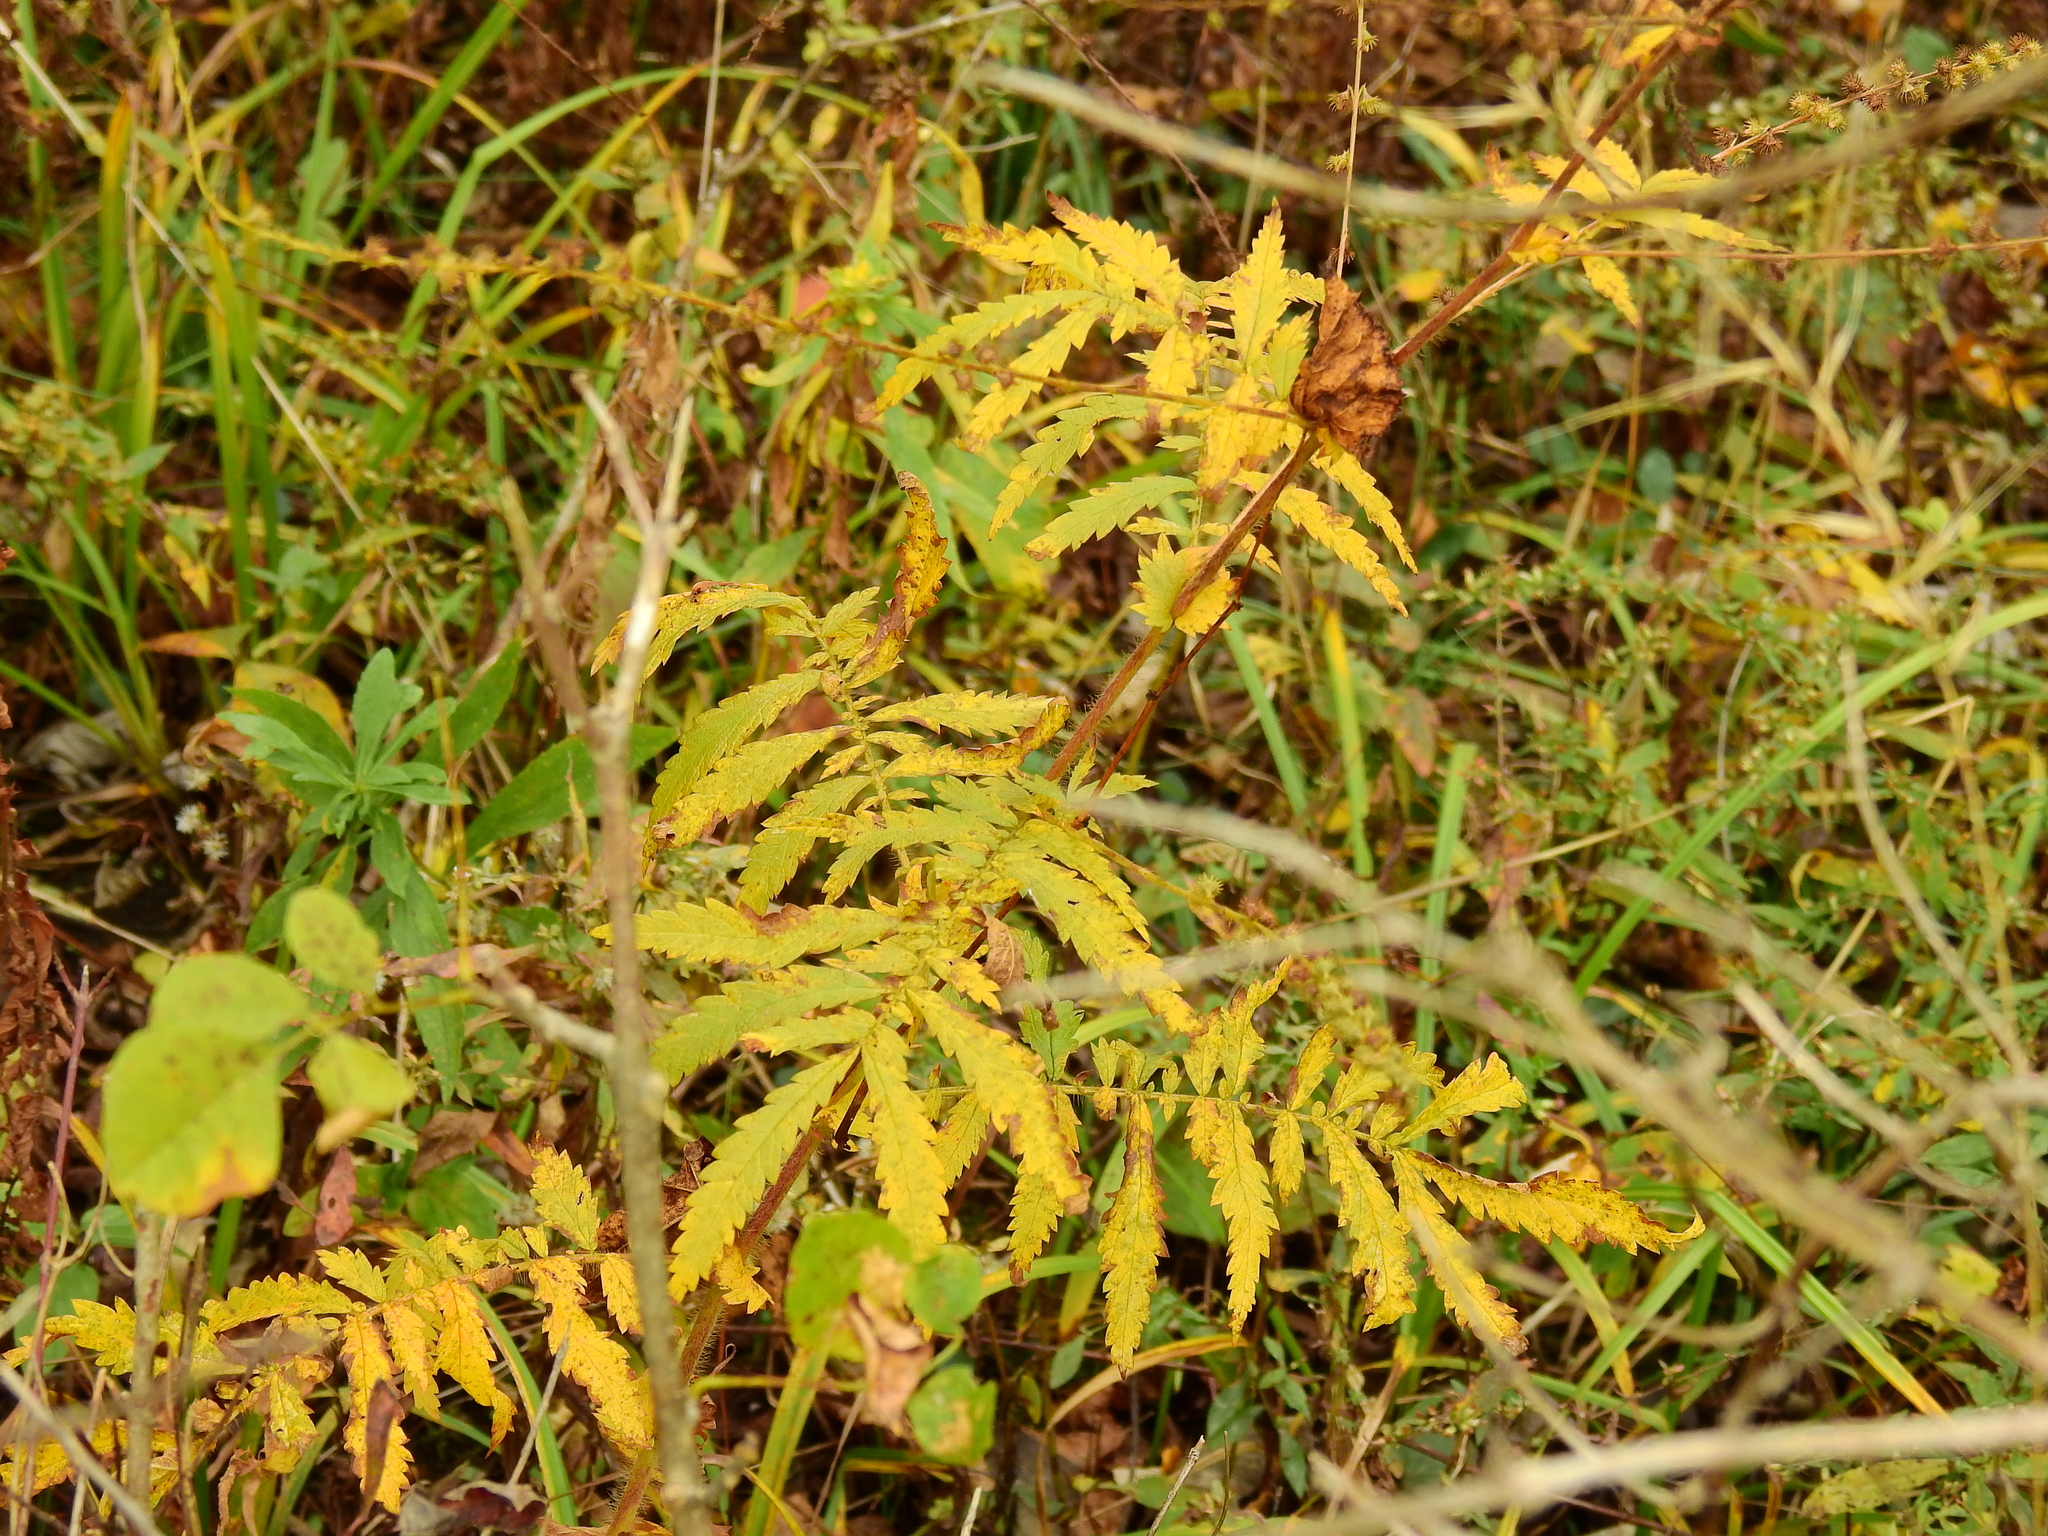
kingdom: Plantae
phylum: Tracheophyta
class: Magnoliopsida
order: Rosales
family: Rosaceae
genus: Agrimonia
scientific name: Agrimonia parviflora
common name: Harvest-lice
